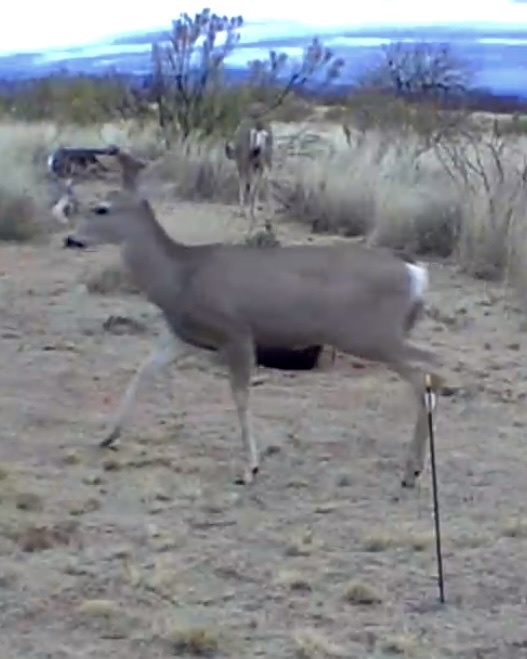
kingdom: Animalia
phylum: Chordata
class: Mammalia
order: Artiodactyla
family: Cervidae
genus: Odocoileus
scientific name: Odocoileus hemionus
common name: Mule deer
